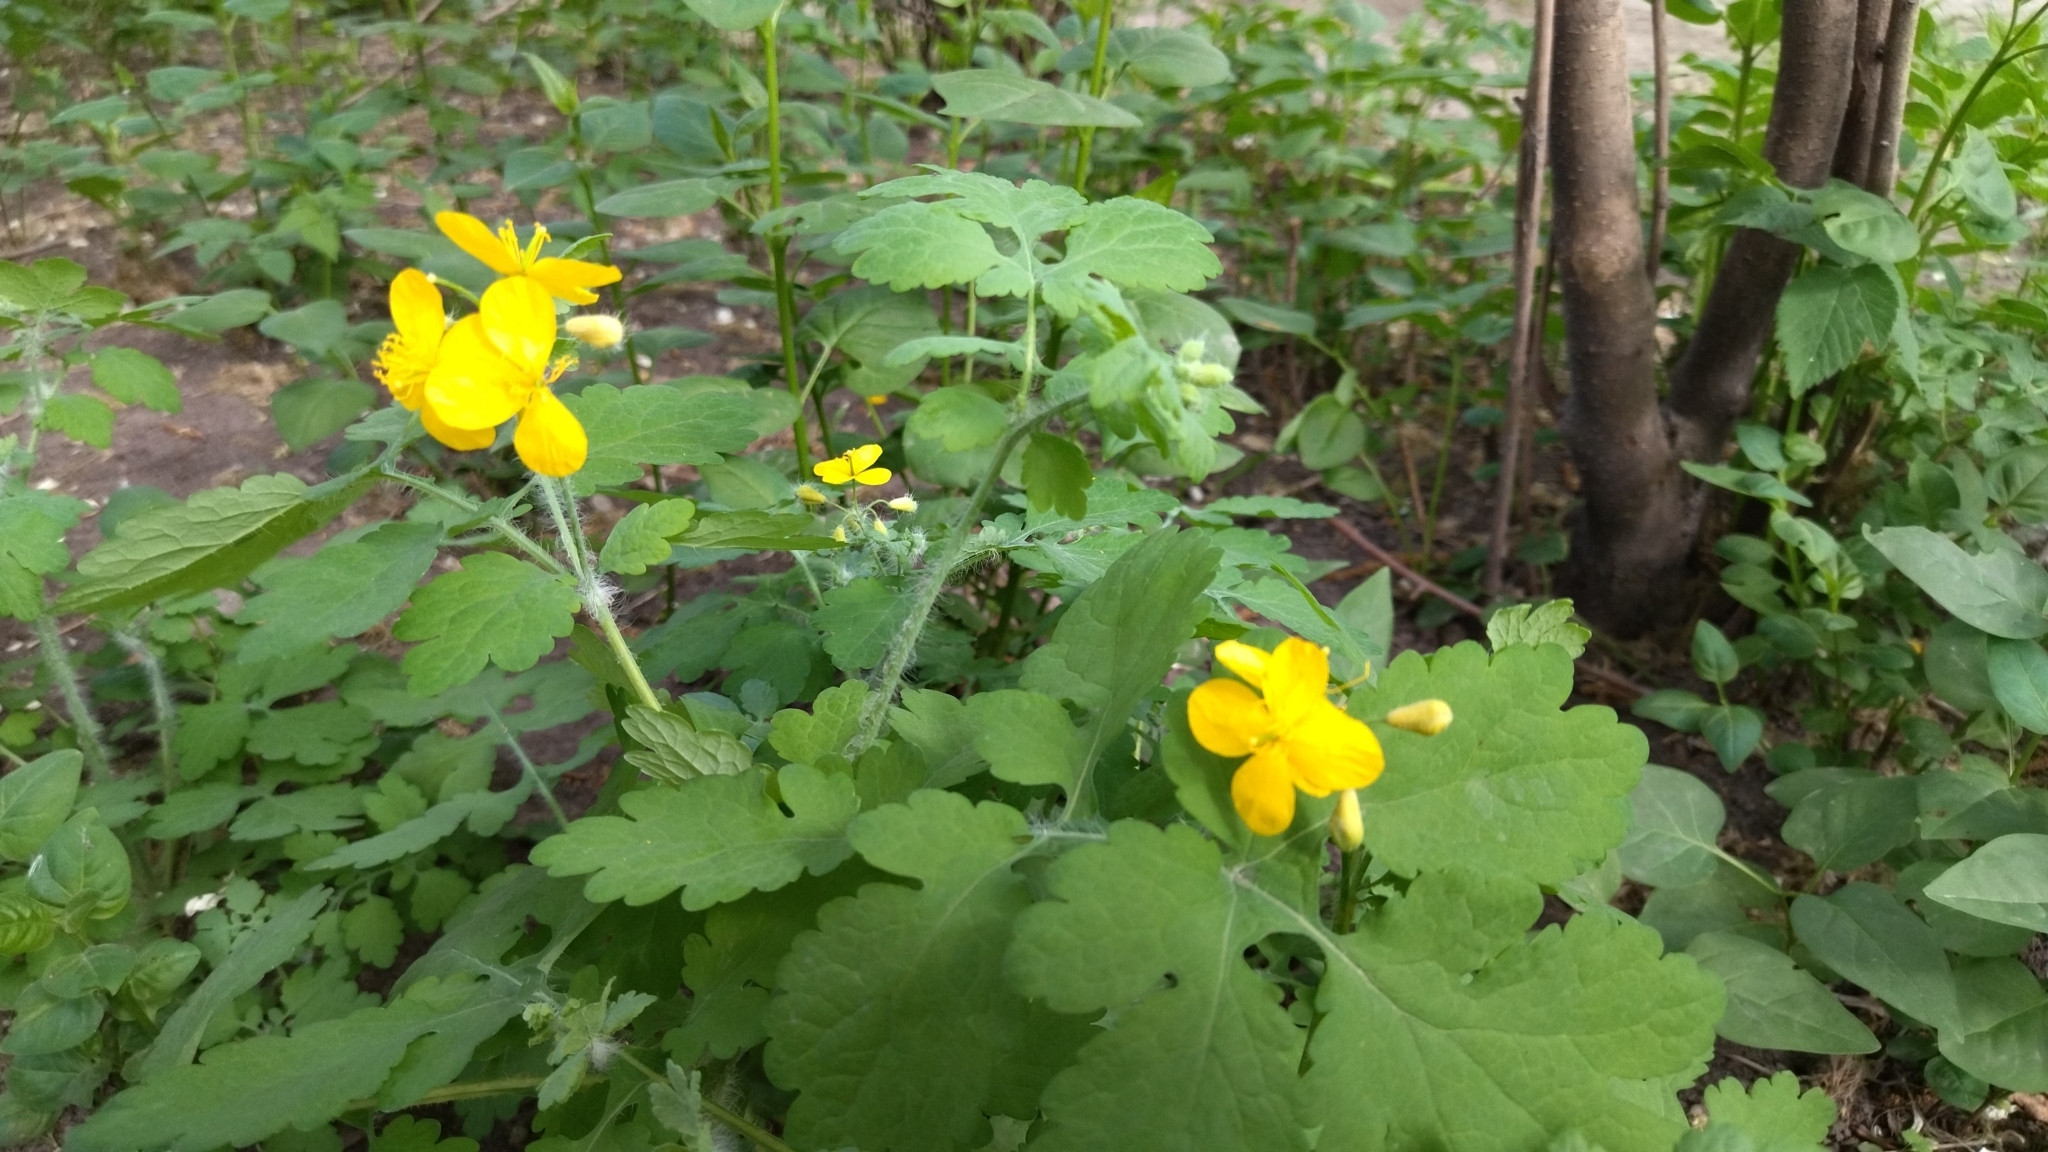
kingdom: Plantae
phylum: Tracheophyta
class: Magnoliopsida
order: Ranunculales
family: Papaveraceae
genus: Chelidonium
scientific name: Chelidonium majus
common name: Greater celandine
